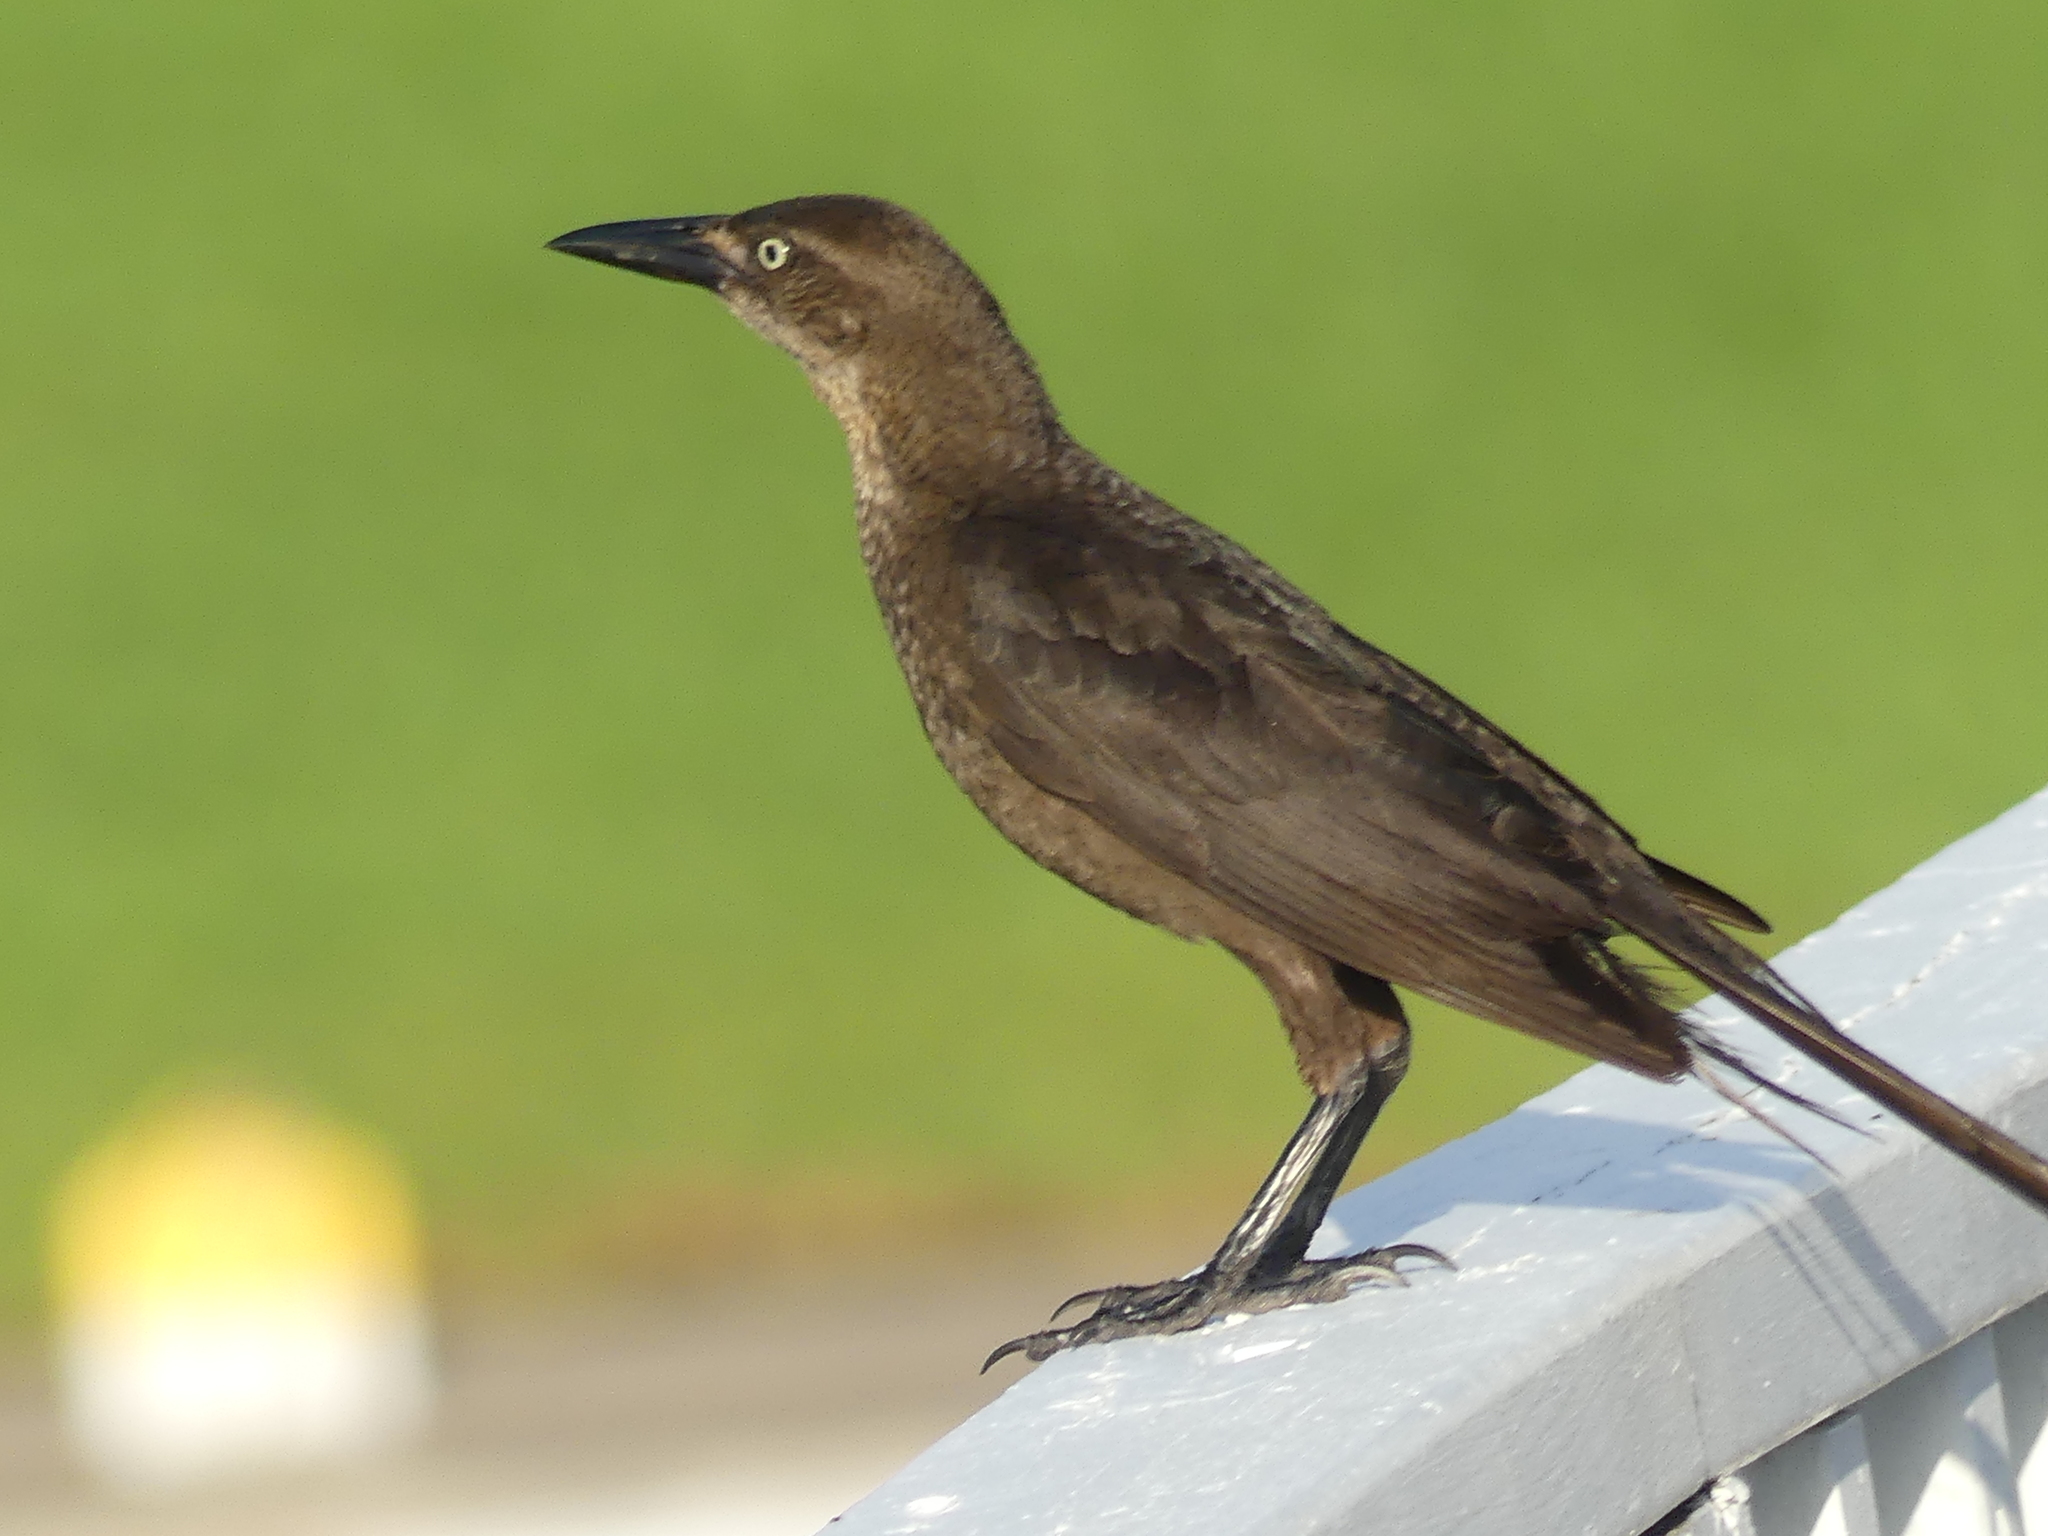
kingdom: Animalia
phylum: Chordata
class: Aves
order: Passeriformes
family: Icteridae
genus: Quiscalus
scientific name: Quiscalus mexicanus
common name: Great-tailed grackle
